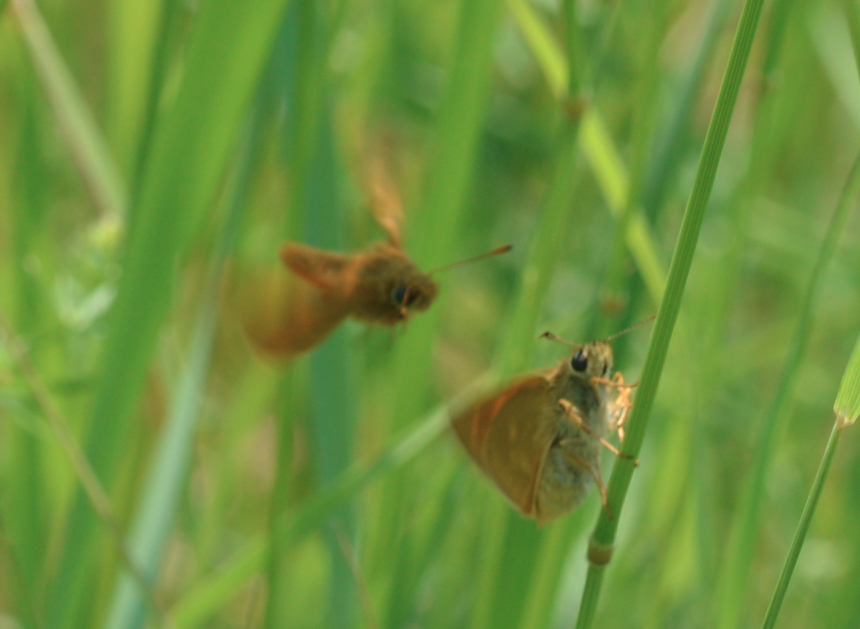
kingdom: Animalia
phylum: Arthropoda
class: Insecta
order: Lepidoptera
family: Hesperiidae
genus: Ochlodes
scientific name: Ochlodes venata
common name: Large skipper
